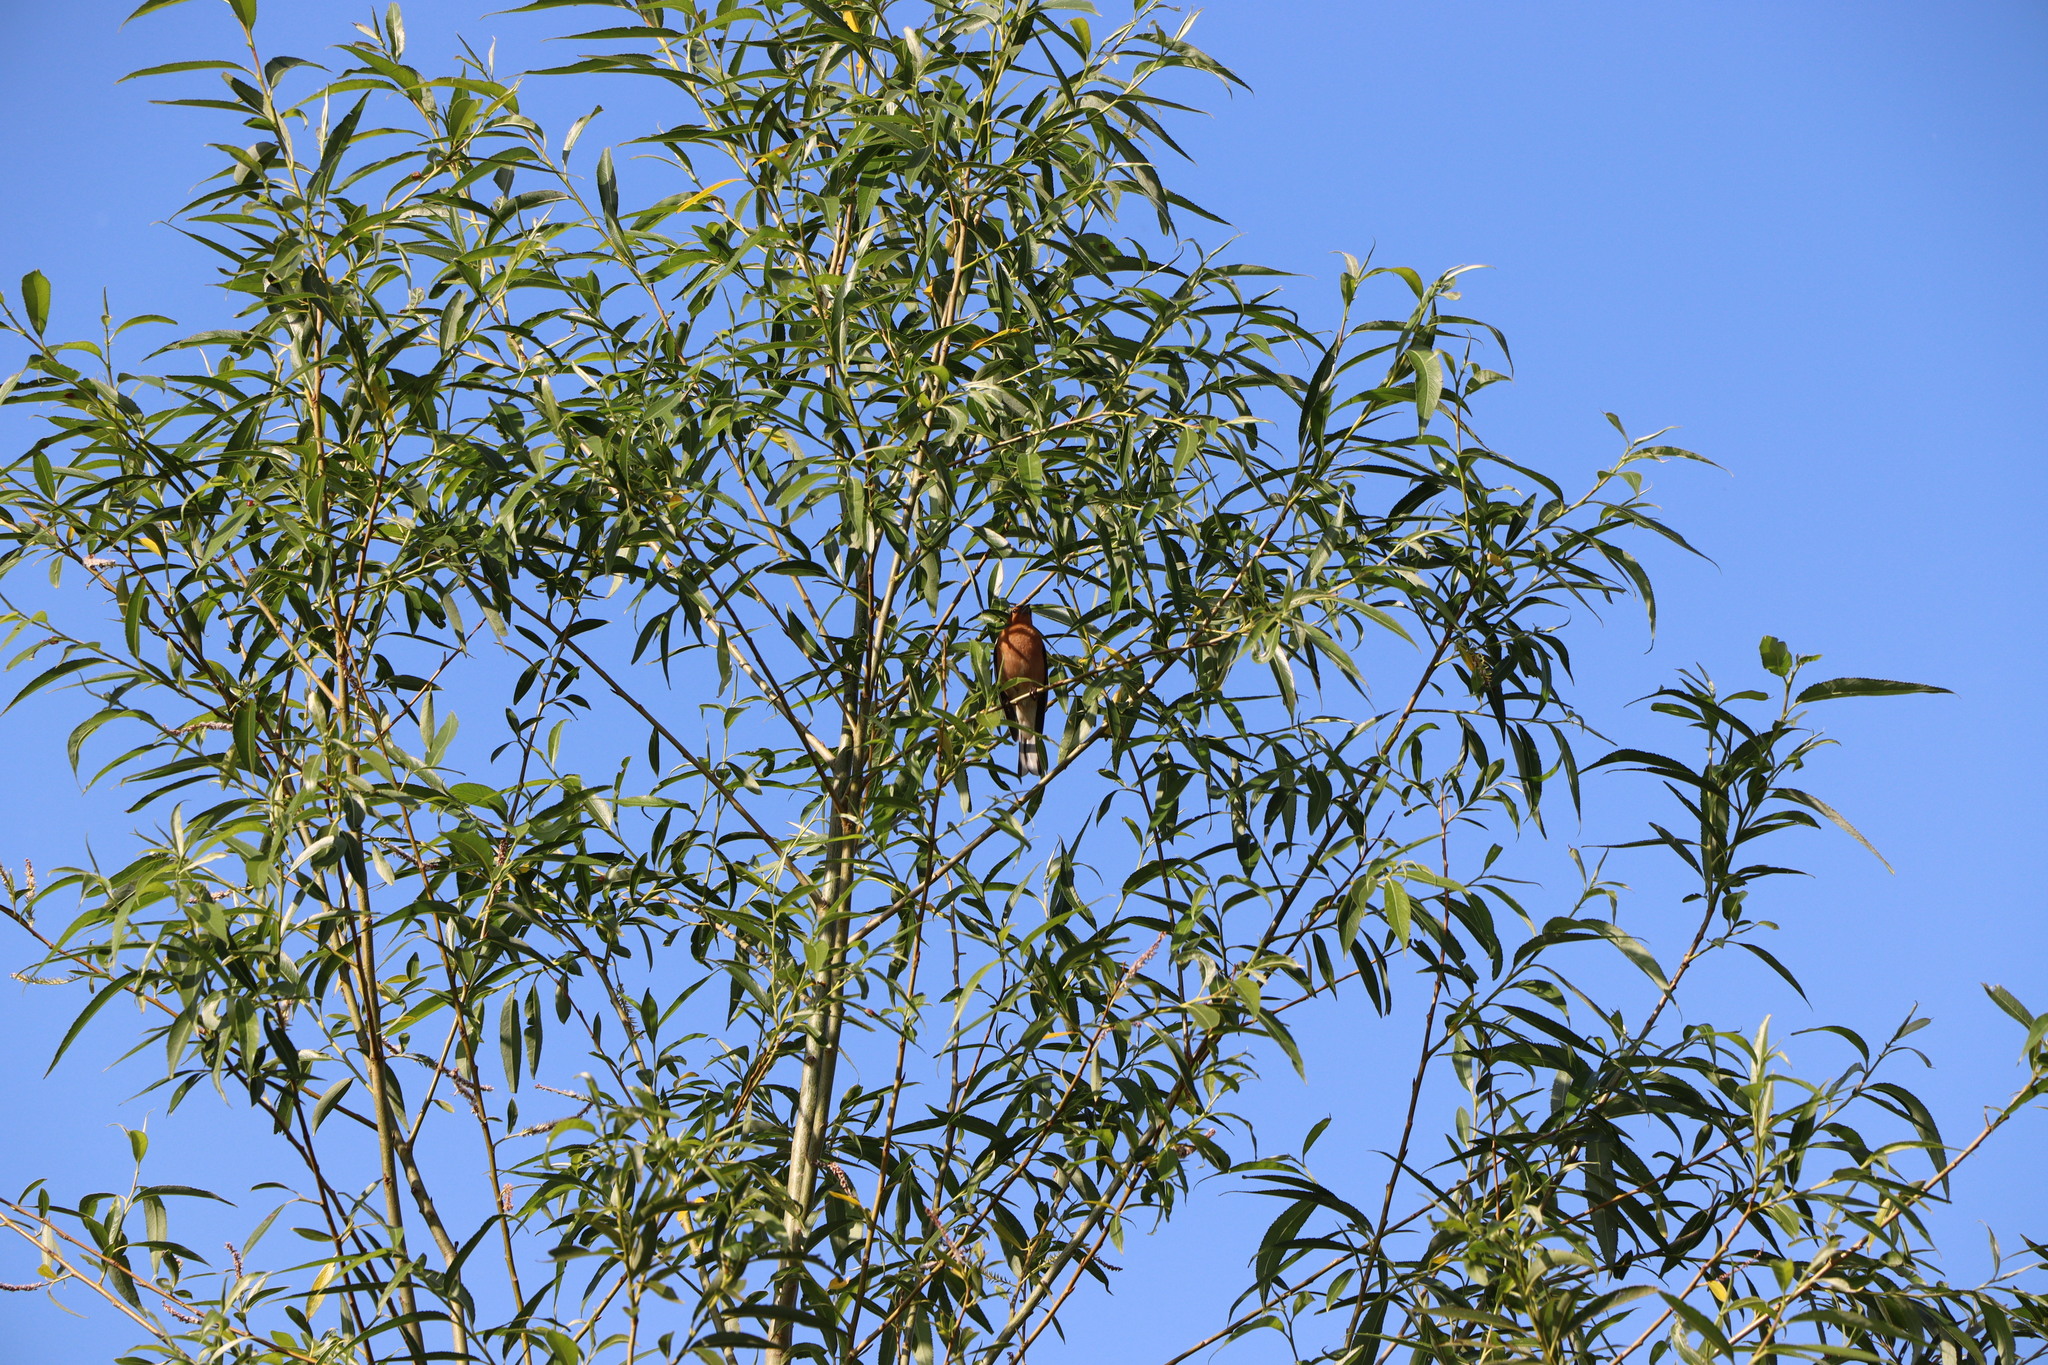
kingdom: Animalia
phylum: Chordata
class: Aves
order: Passeriformes
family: Fringillidae
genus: Fringilla
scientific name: Fringilla coelebs
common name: Common chaffinch
